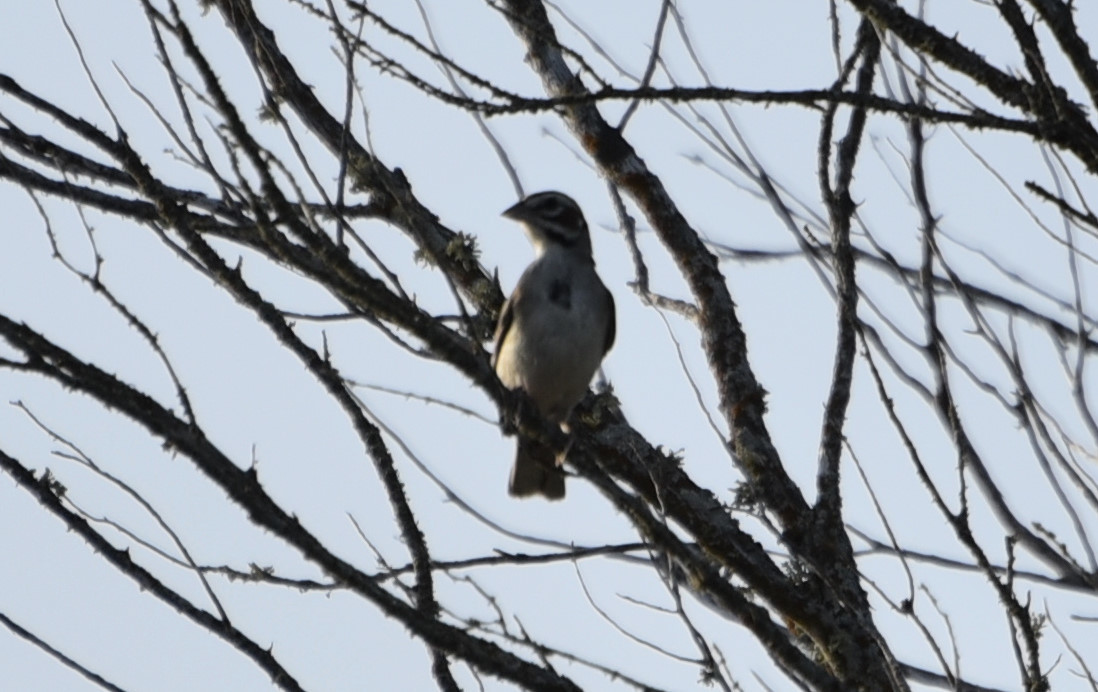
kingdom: Animalia
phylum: Chordata
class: Aves
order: Passeriformes
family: Passerellidae
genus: Chondestes
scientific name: Chondestes grammacus
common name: Lark sparrow
